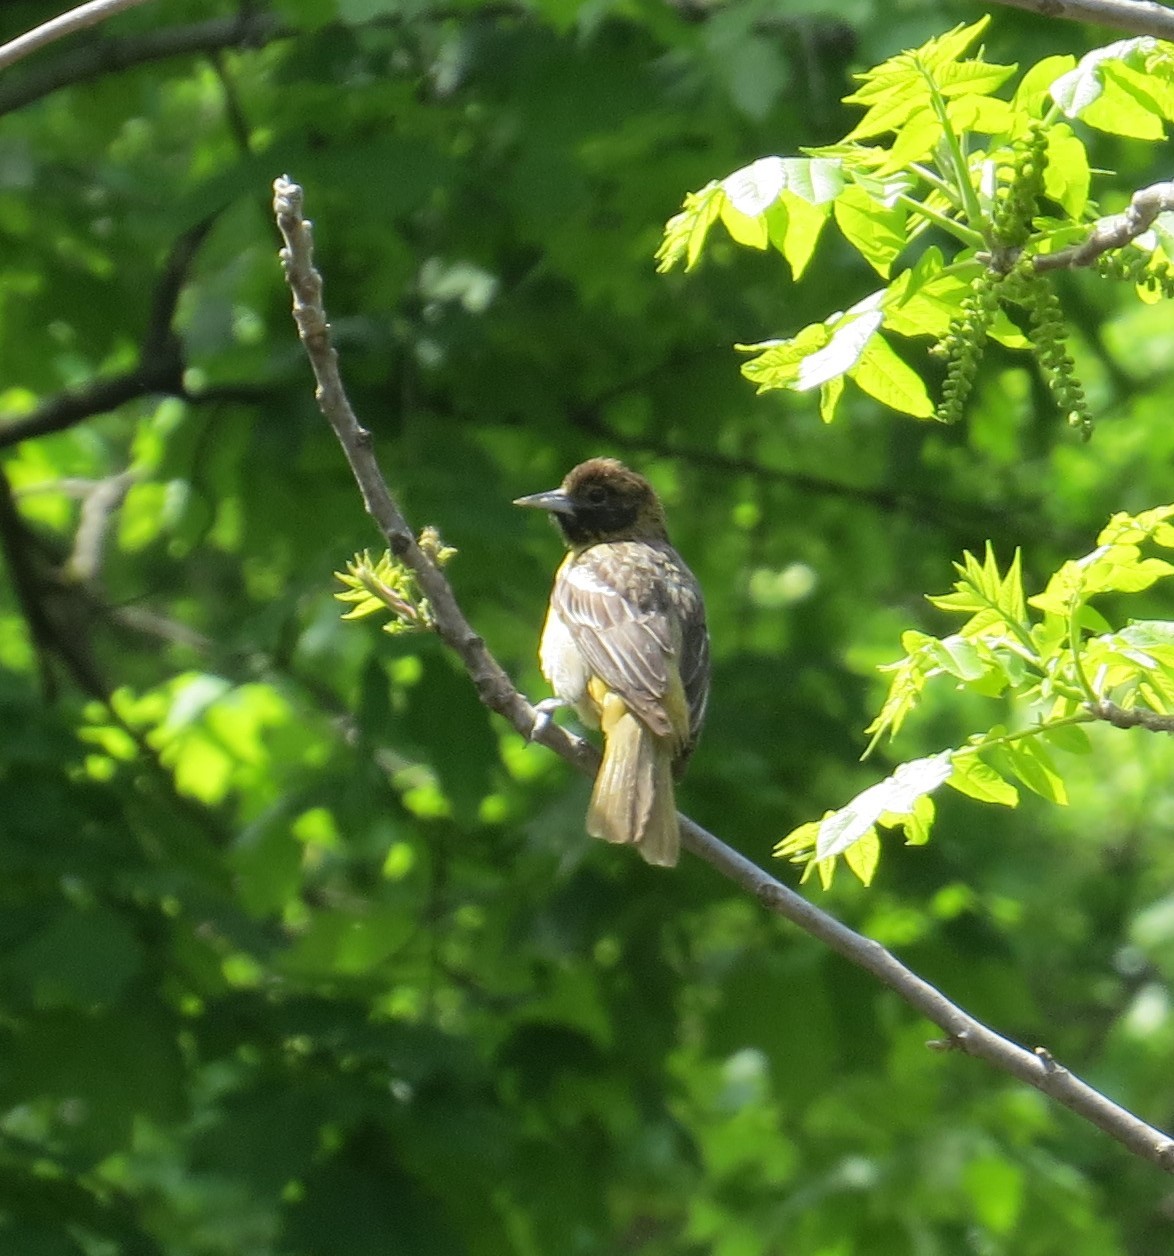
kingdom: Animalia
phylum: Chordata
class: Aves
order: Passeriformes
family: Icteridae
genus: Icterus
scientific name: Icterus galbula
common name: Baltimore oriole
